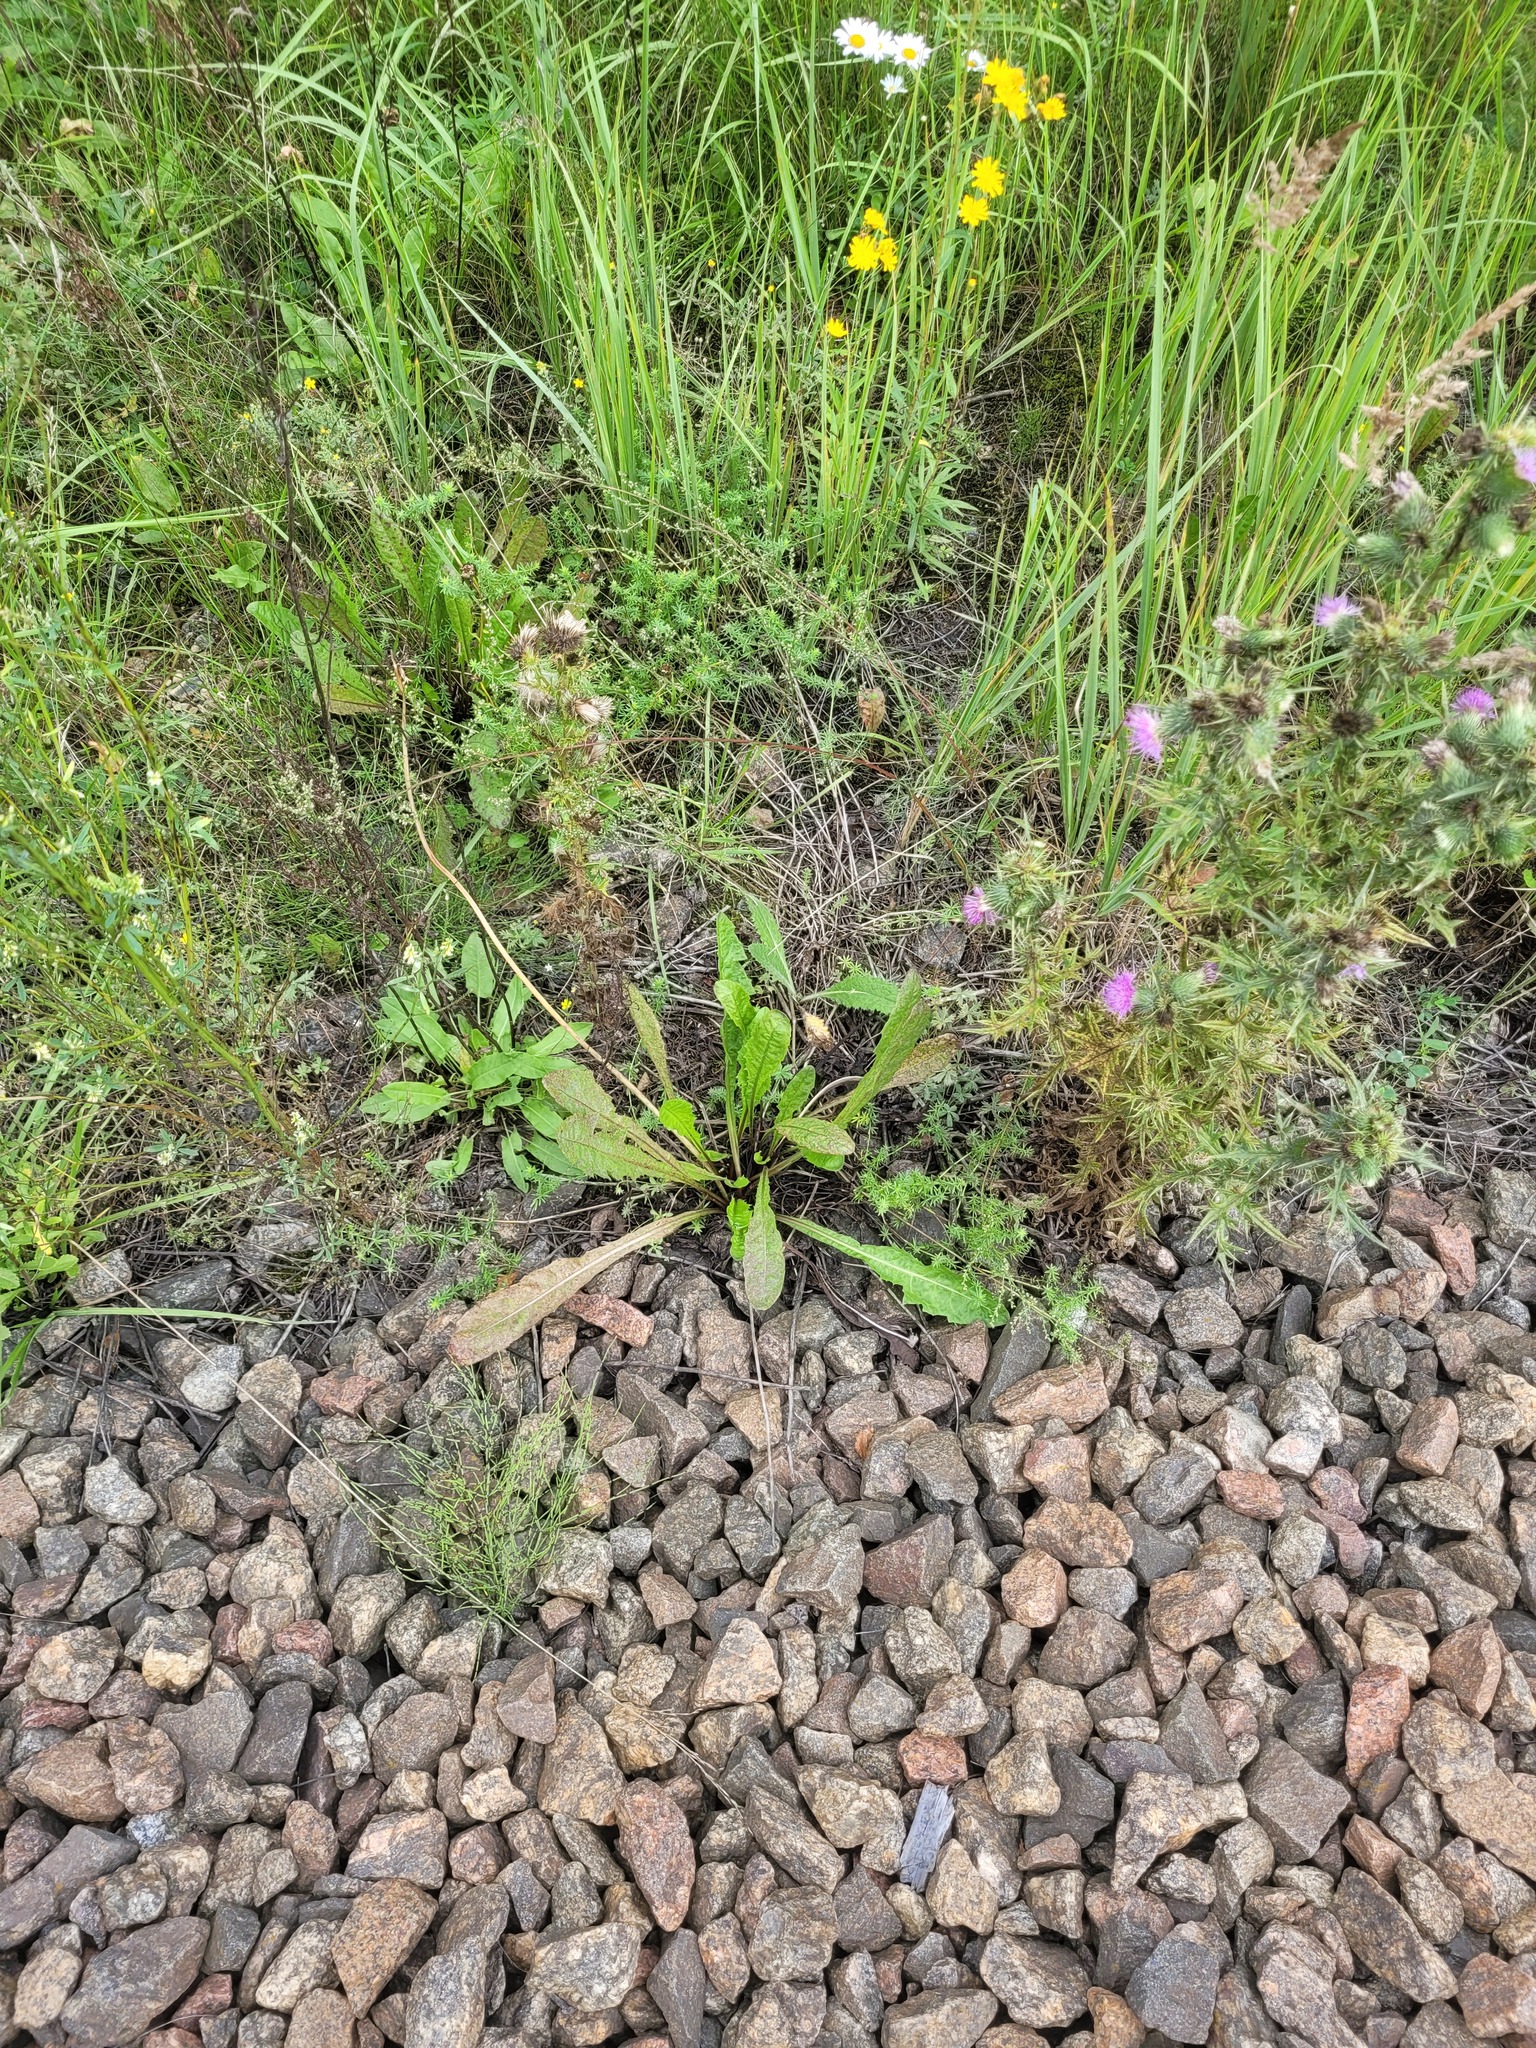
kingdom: Plantae
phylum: Tracheophyta
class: Magnoliopsida
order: Asterales
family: Asteraceae
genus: Taraxacum
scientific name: Taraxacum officinale
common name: Common dandelion
